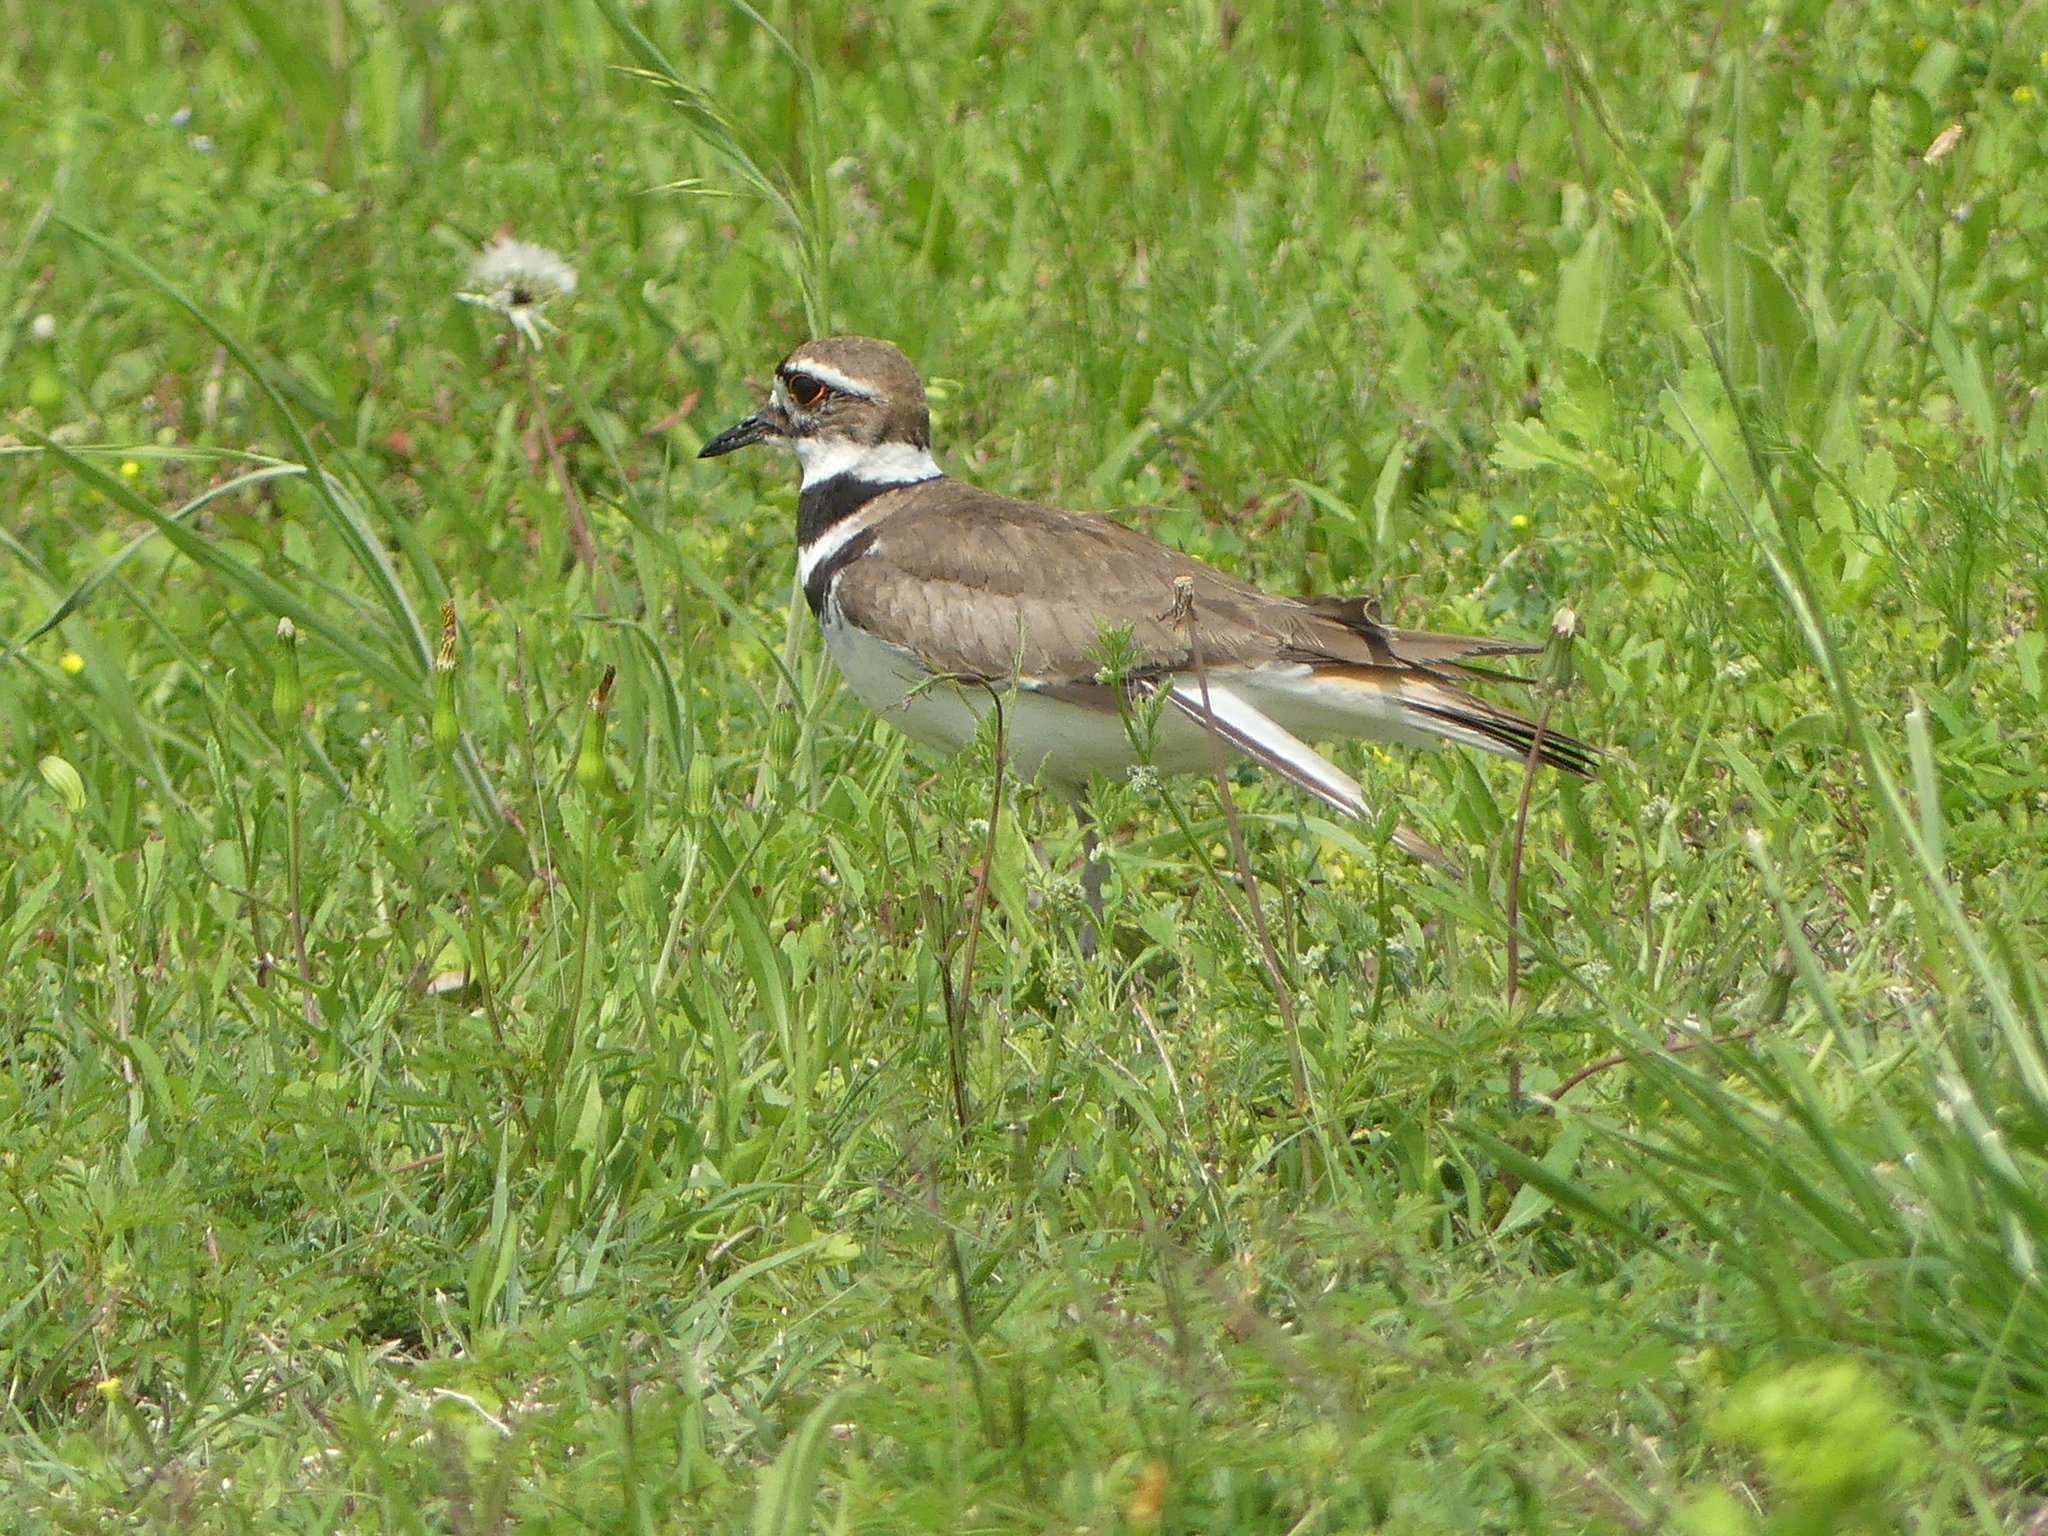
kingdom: Animalia
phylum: Chordata
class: Aves
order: Charadriiformes
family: Charadriidae
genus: Charadrius
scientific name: Charadrius vociferus
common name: Killdeer
